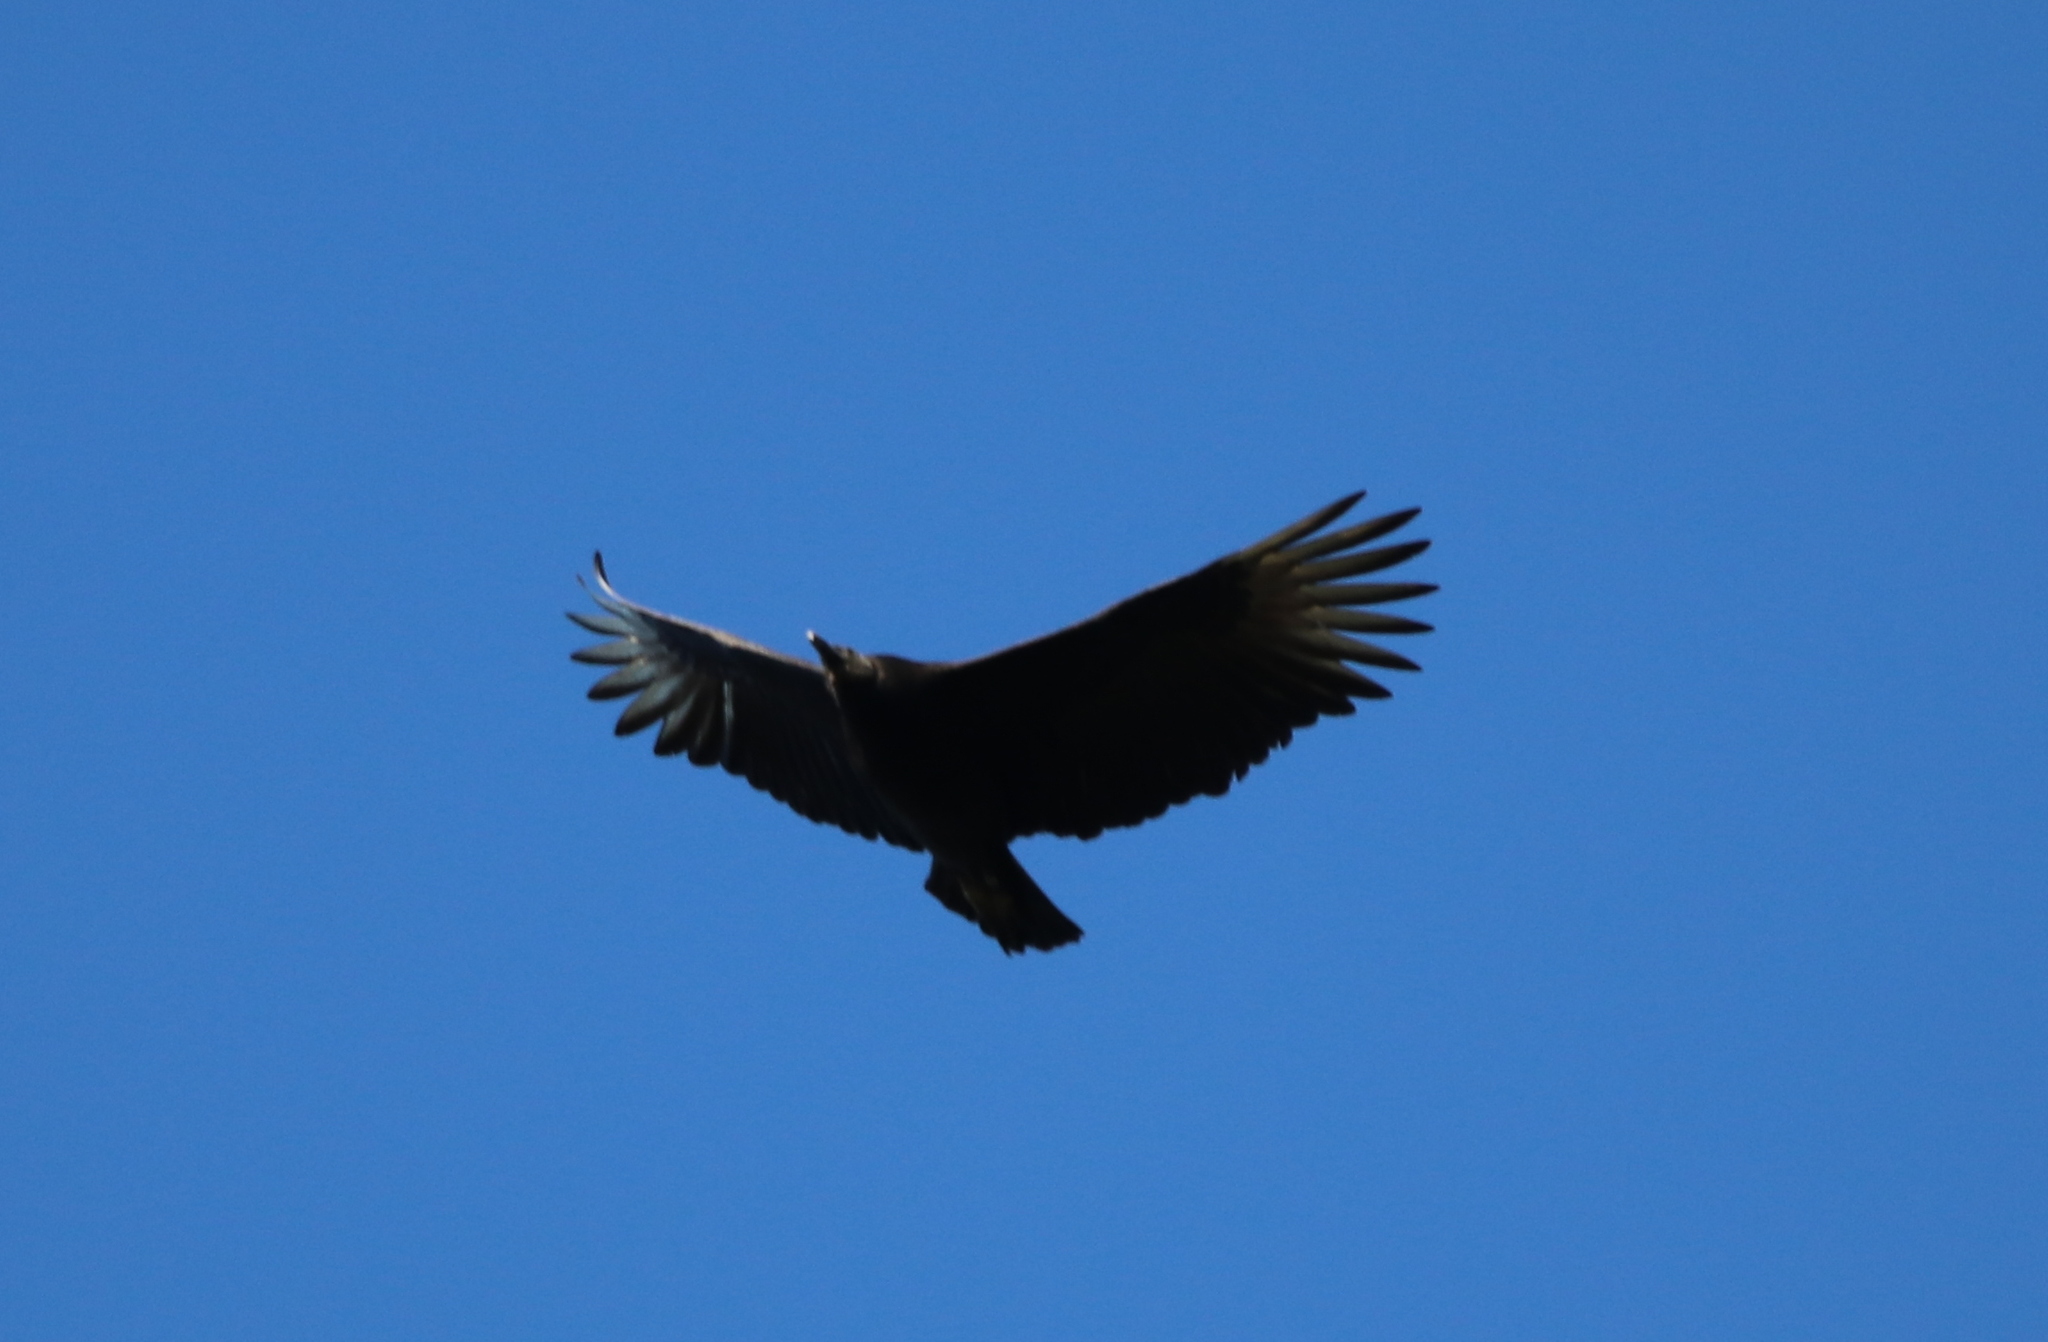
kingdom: Animalia
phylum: Chordata
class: Aves
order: Accipitriformes
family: Cathartidae
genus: Coragyps
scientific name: Coragyps atratus
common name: Black vulture
